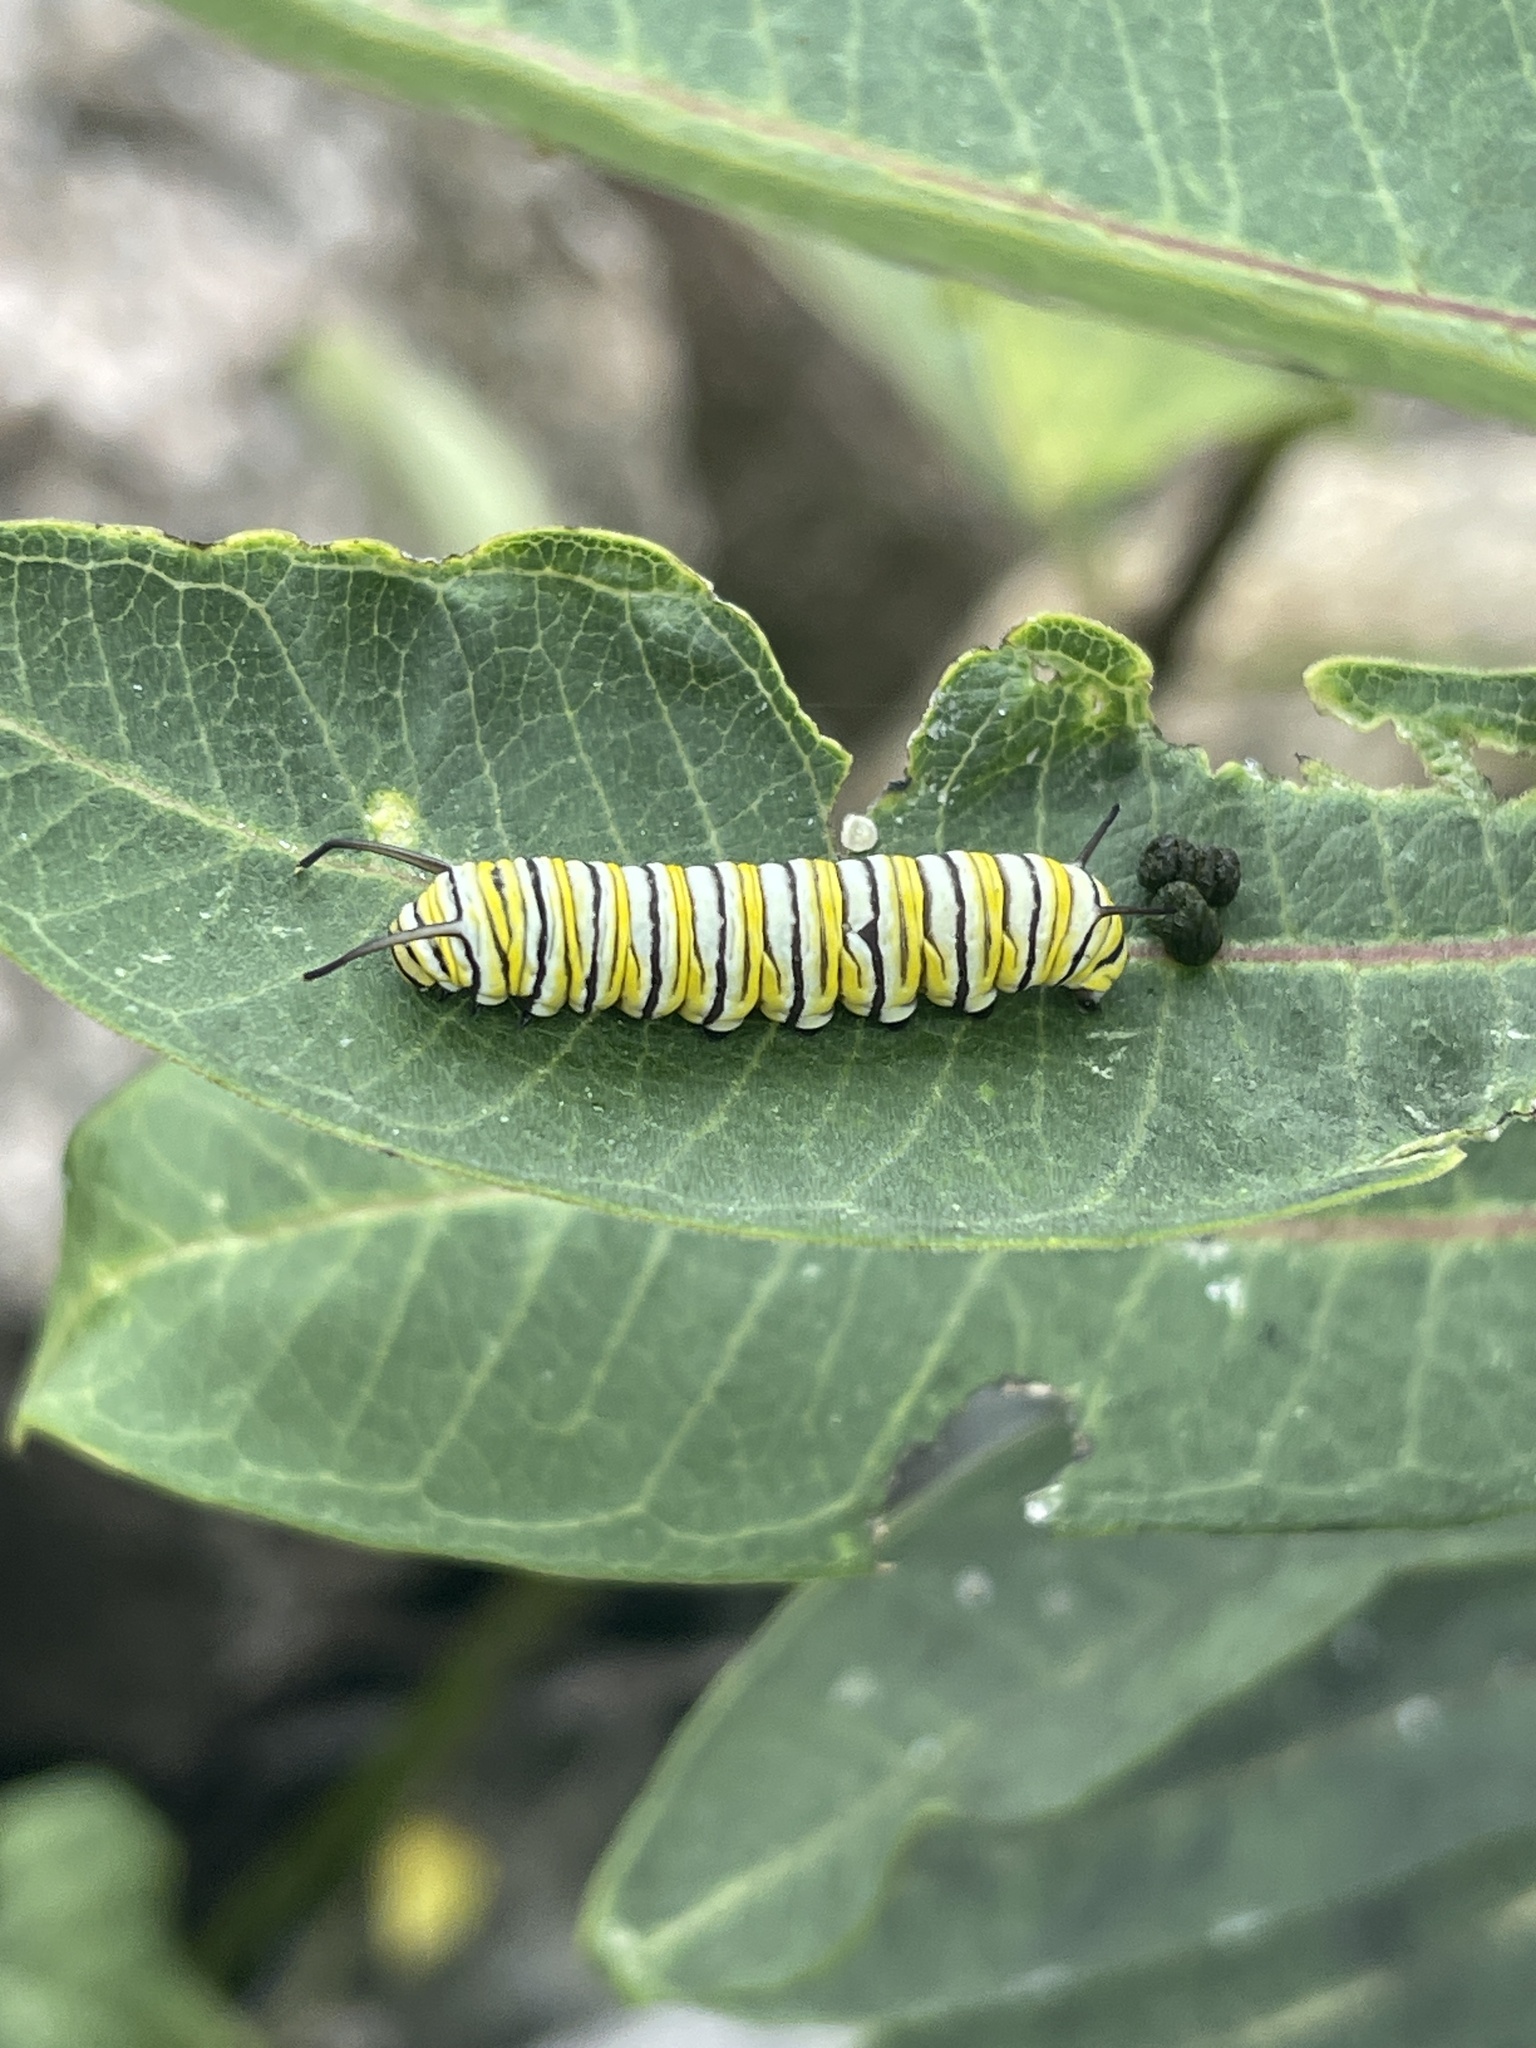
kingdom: Animalia
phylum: Arthropoda
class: Insecta
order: Lepidoptera
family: Nymphalidae
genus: Danaus
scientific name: Danaus plexippus
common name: Monarch
